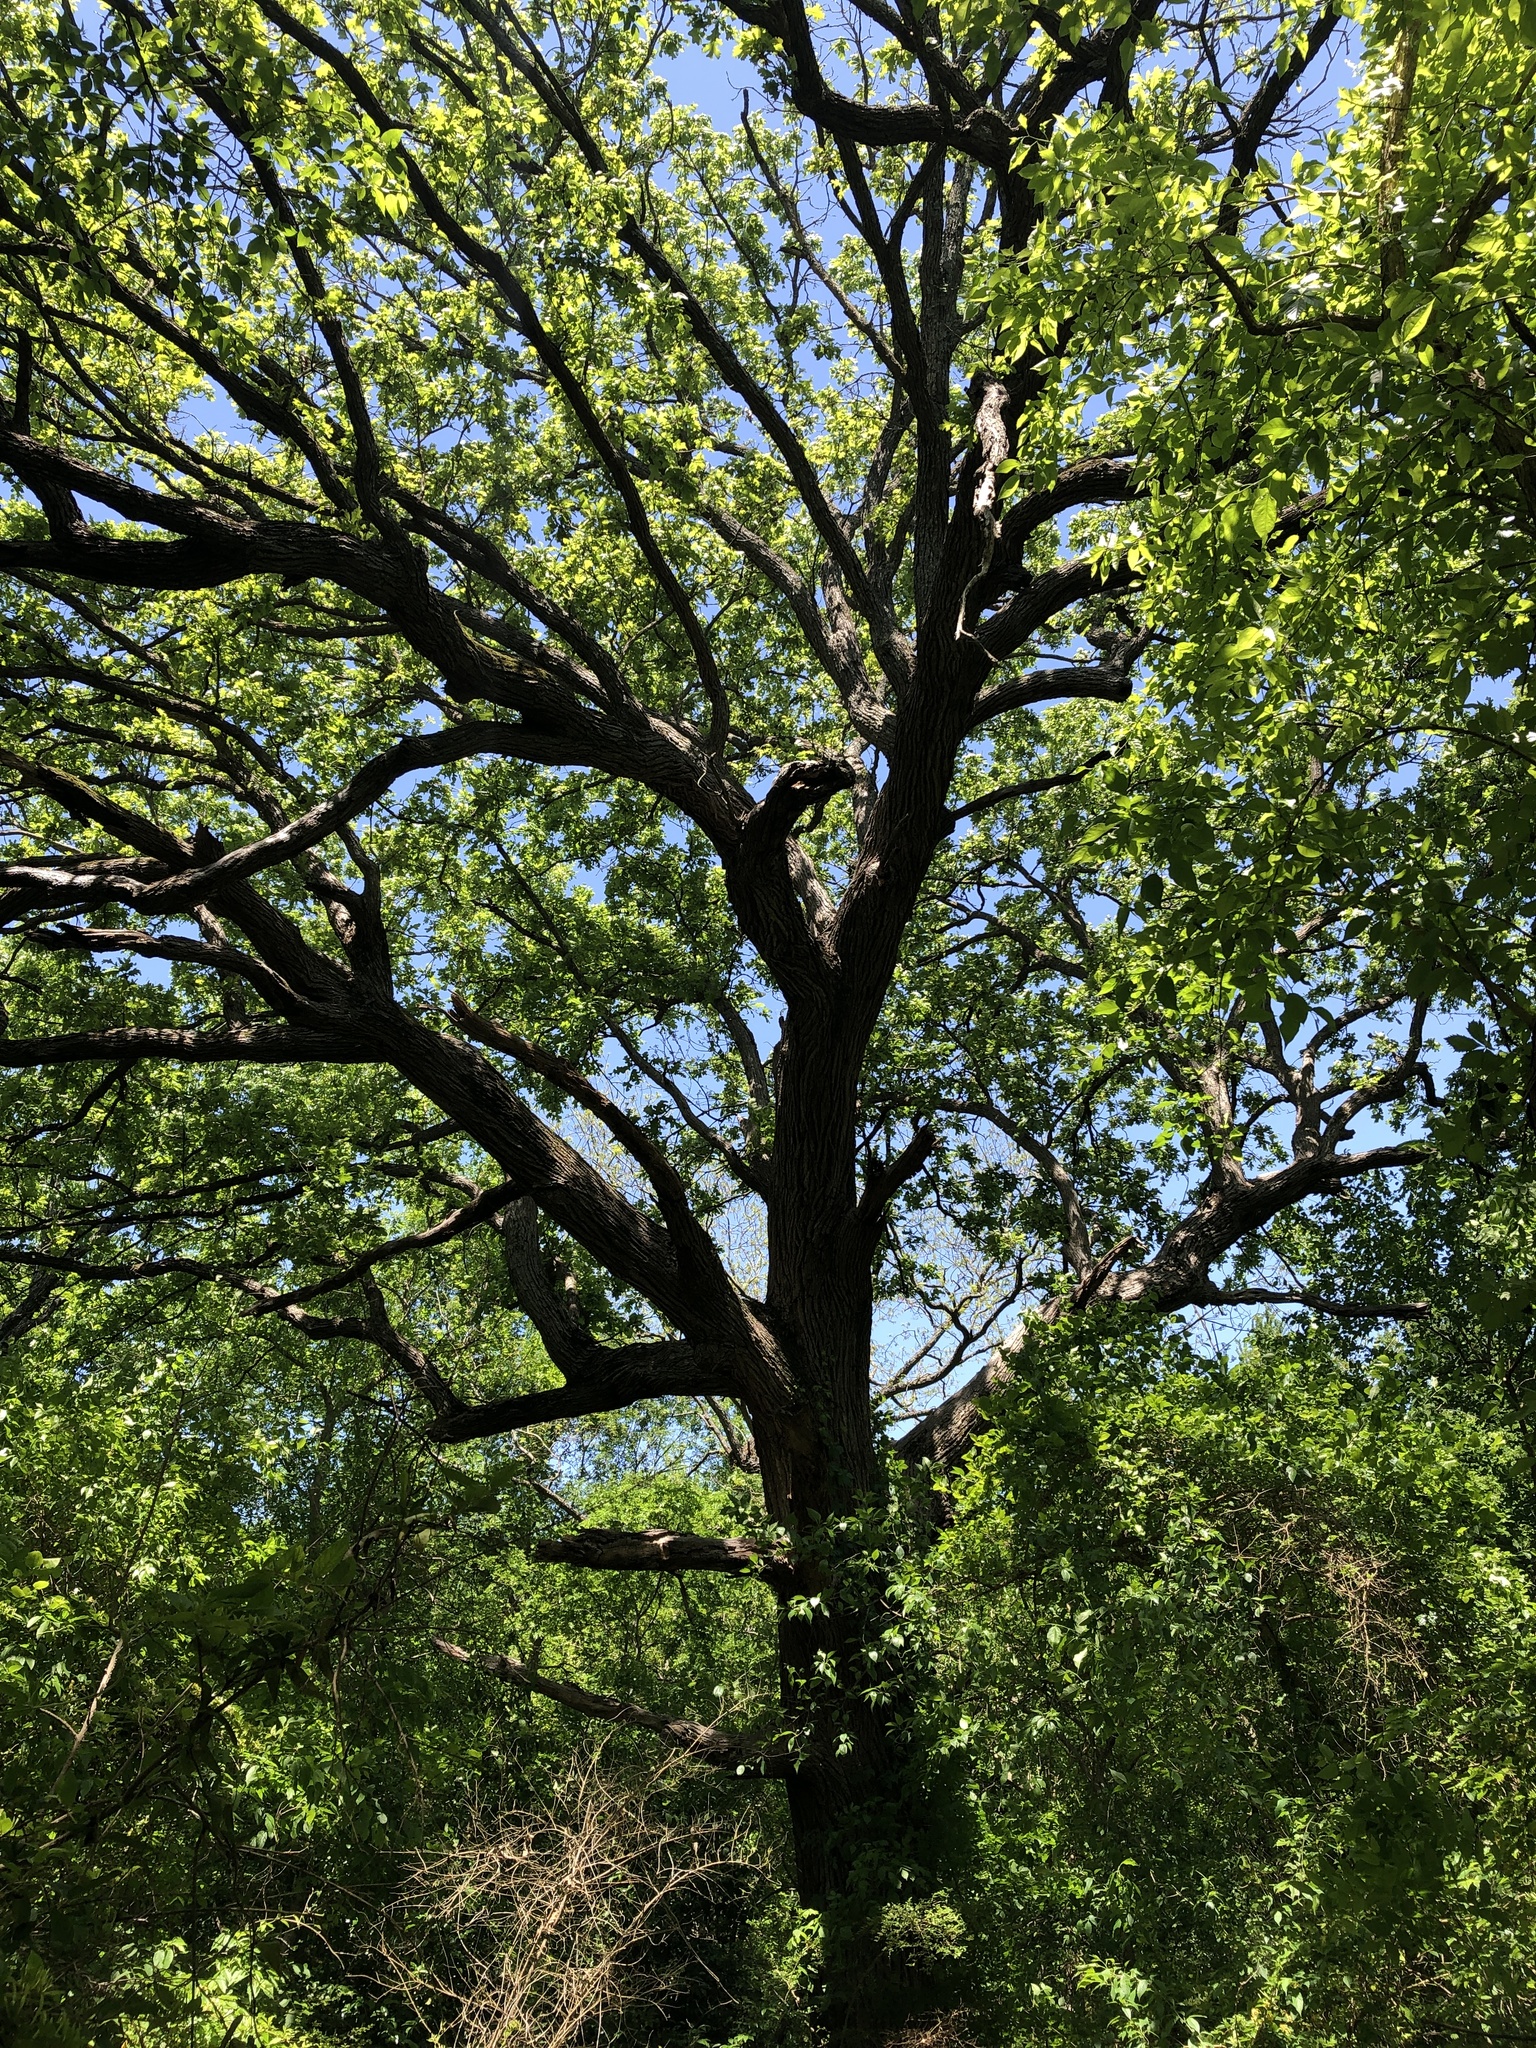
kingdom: Plantae
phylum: Tracheophyta
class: Magnoliopsida
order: Fagales
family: Fagaceae
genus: Quercus
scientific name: Quercus macrocarpa
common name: Bur oak
